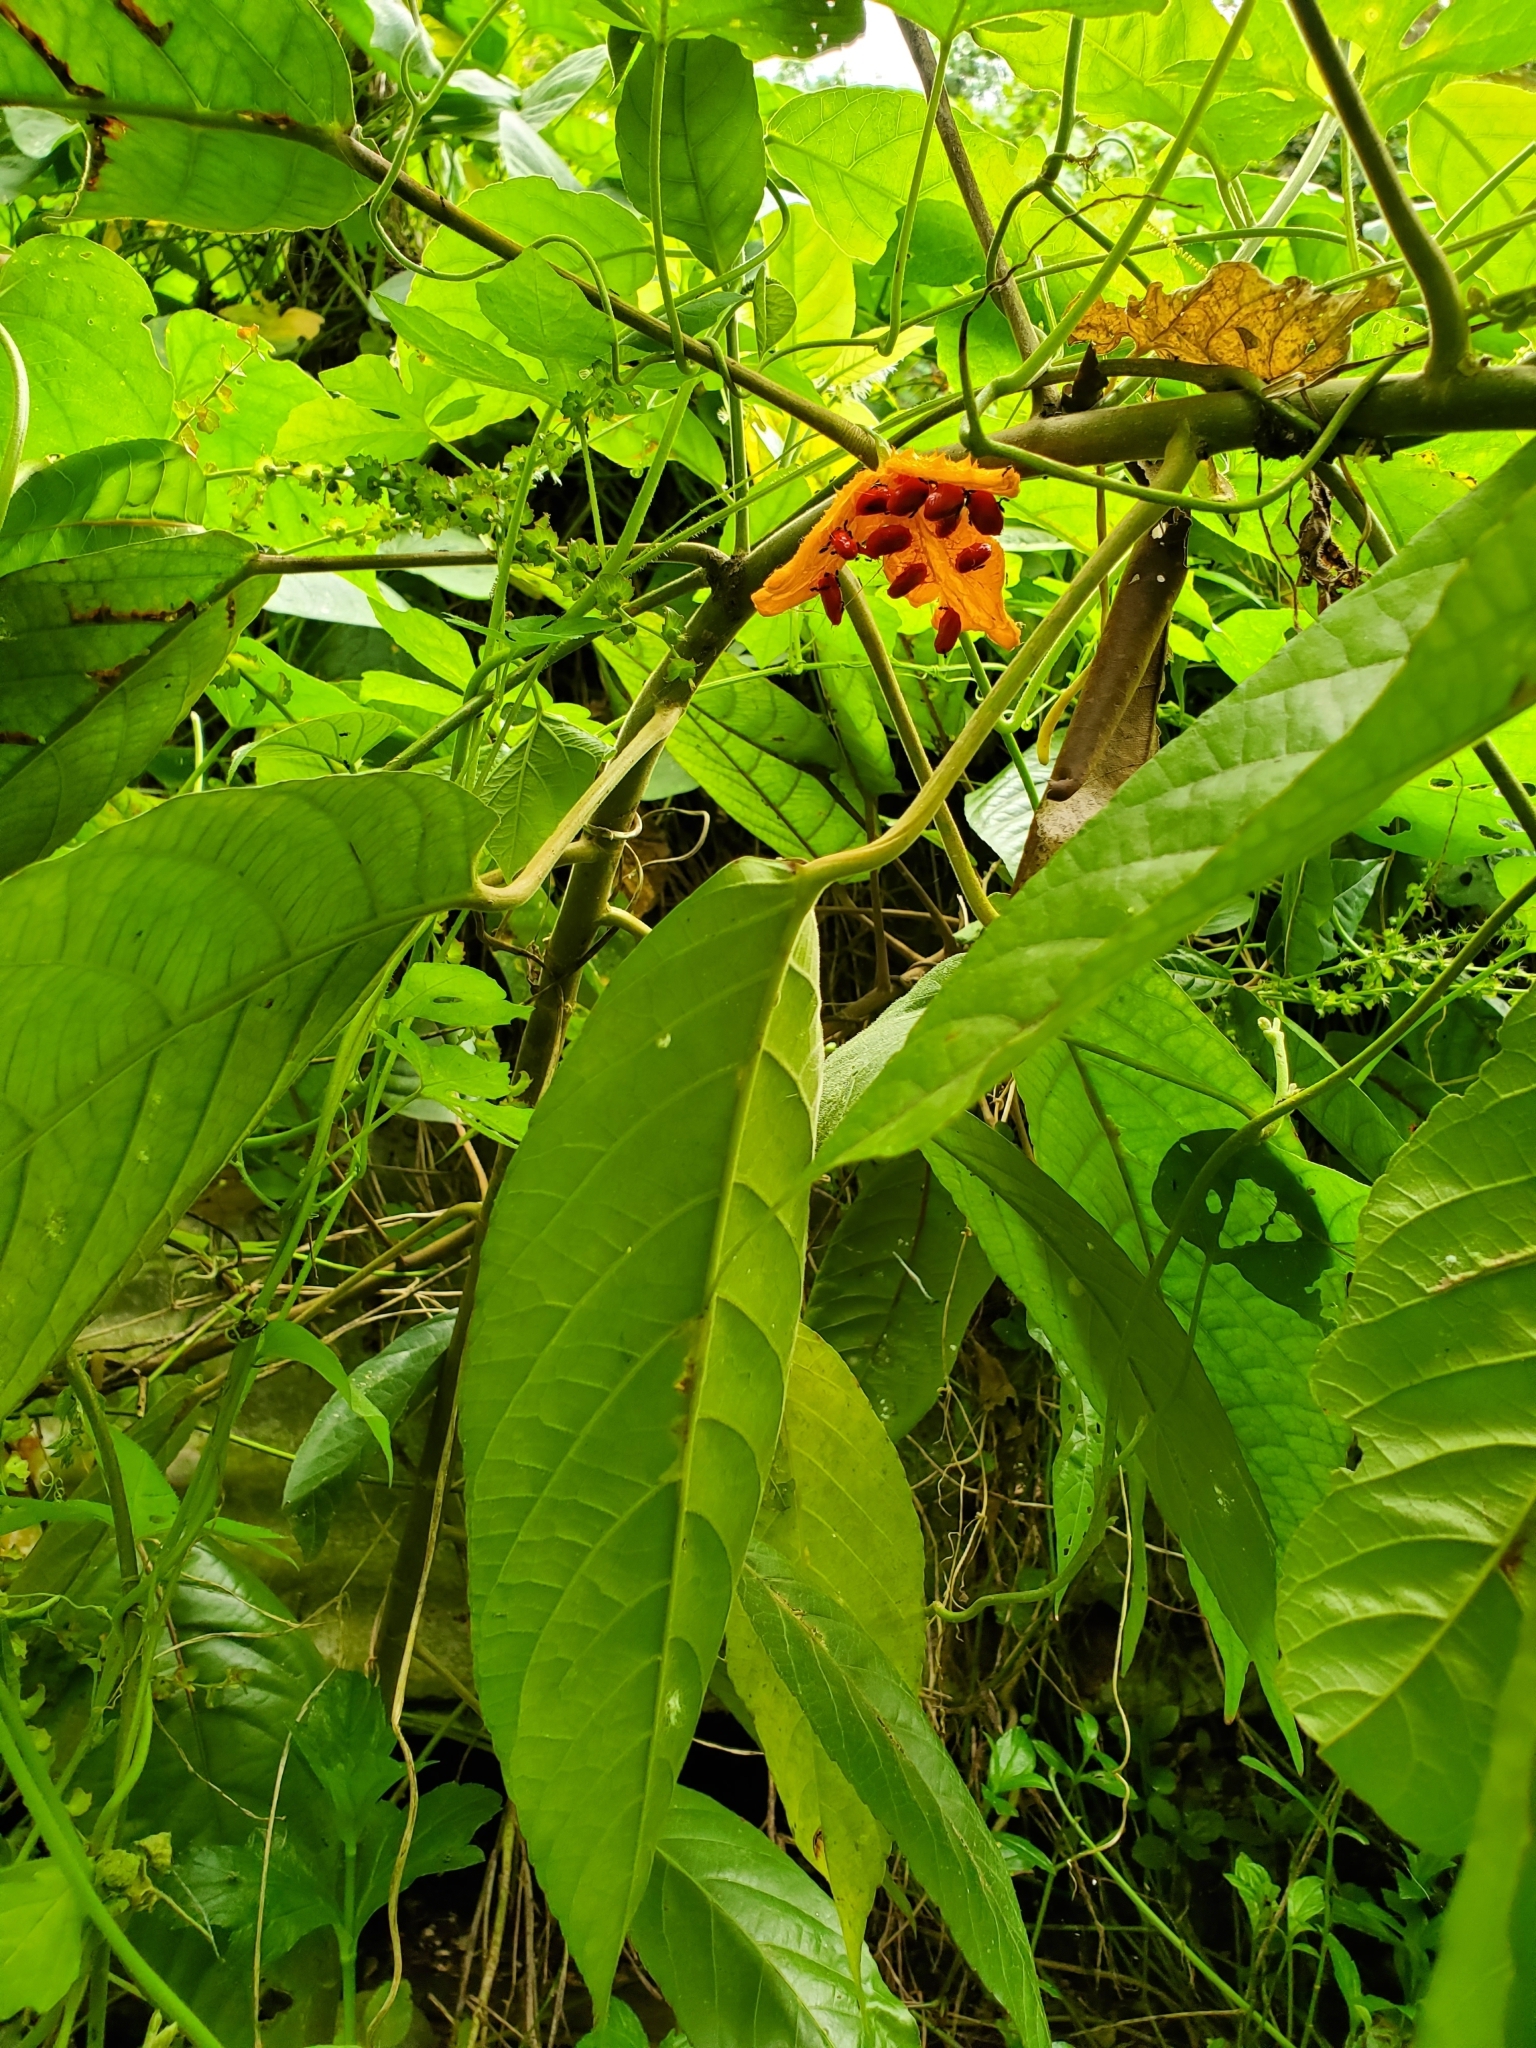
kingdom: Plantae
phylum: Tracheophyta
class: Magnoliopsida
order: Cucurbitales
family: Cucurbitaceae
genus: Momordica
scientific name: Momordica charantia
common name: Balsampear
